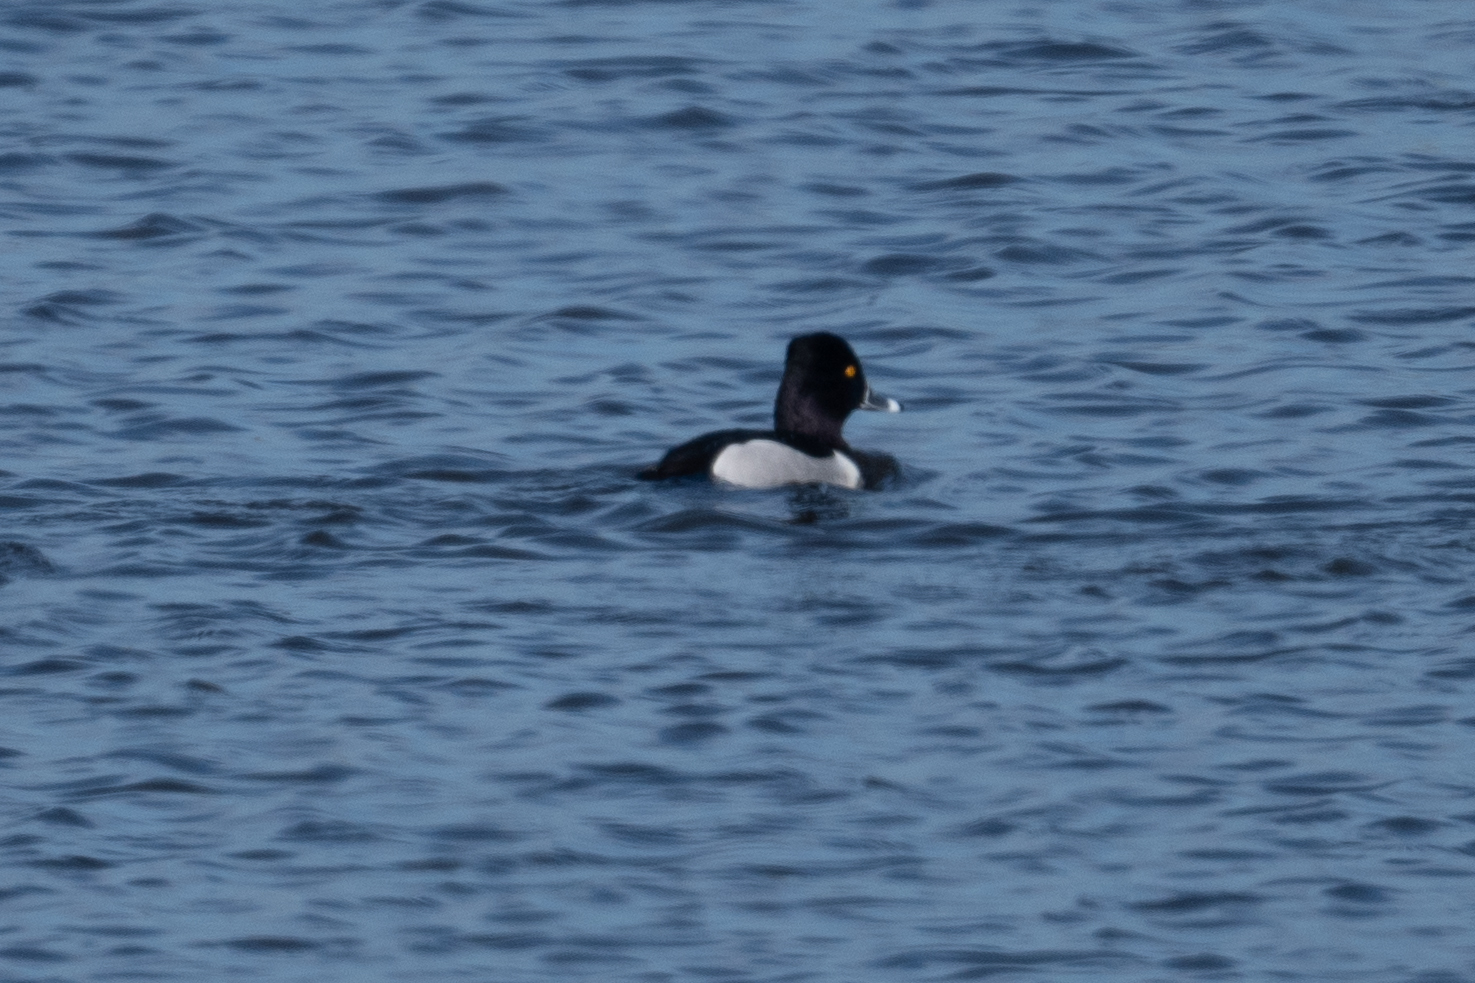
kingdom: Animalia
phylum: Chordata
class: Aves
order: Anseriformes
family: Anatidae
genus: Aythya
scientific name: Aythya collaris
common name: Ring-necked duck
